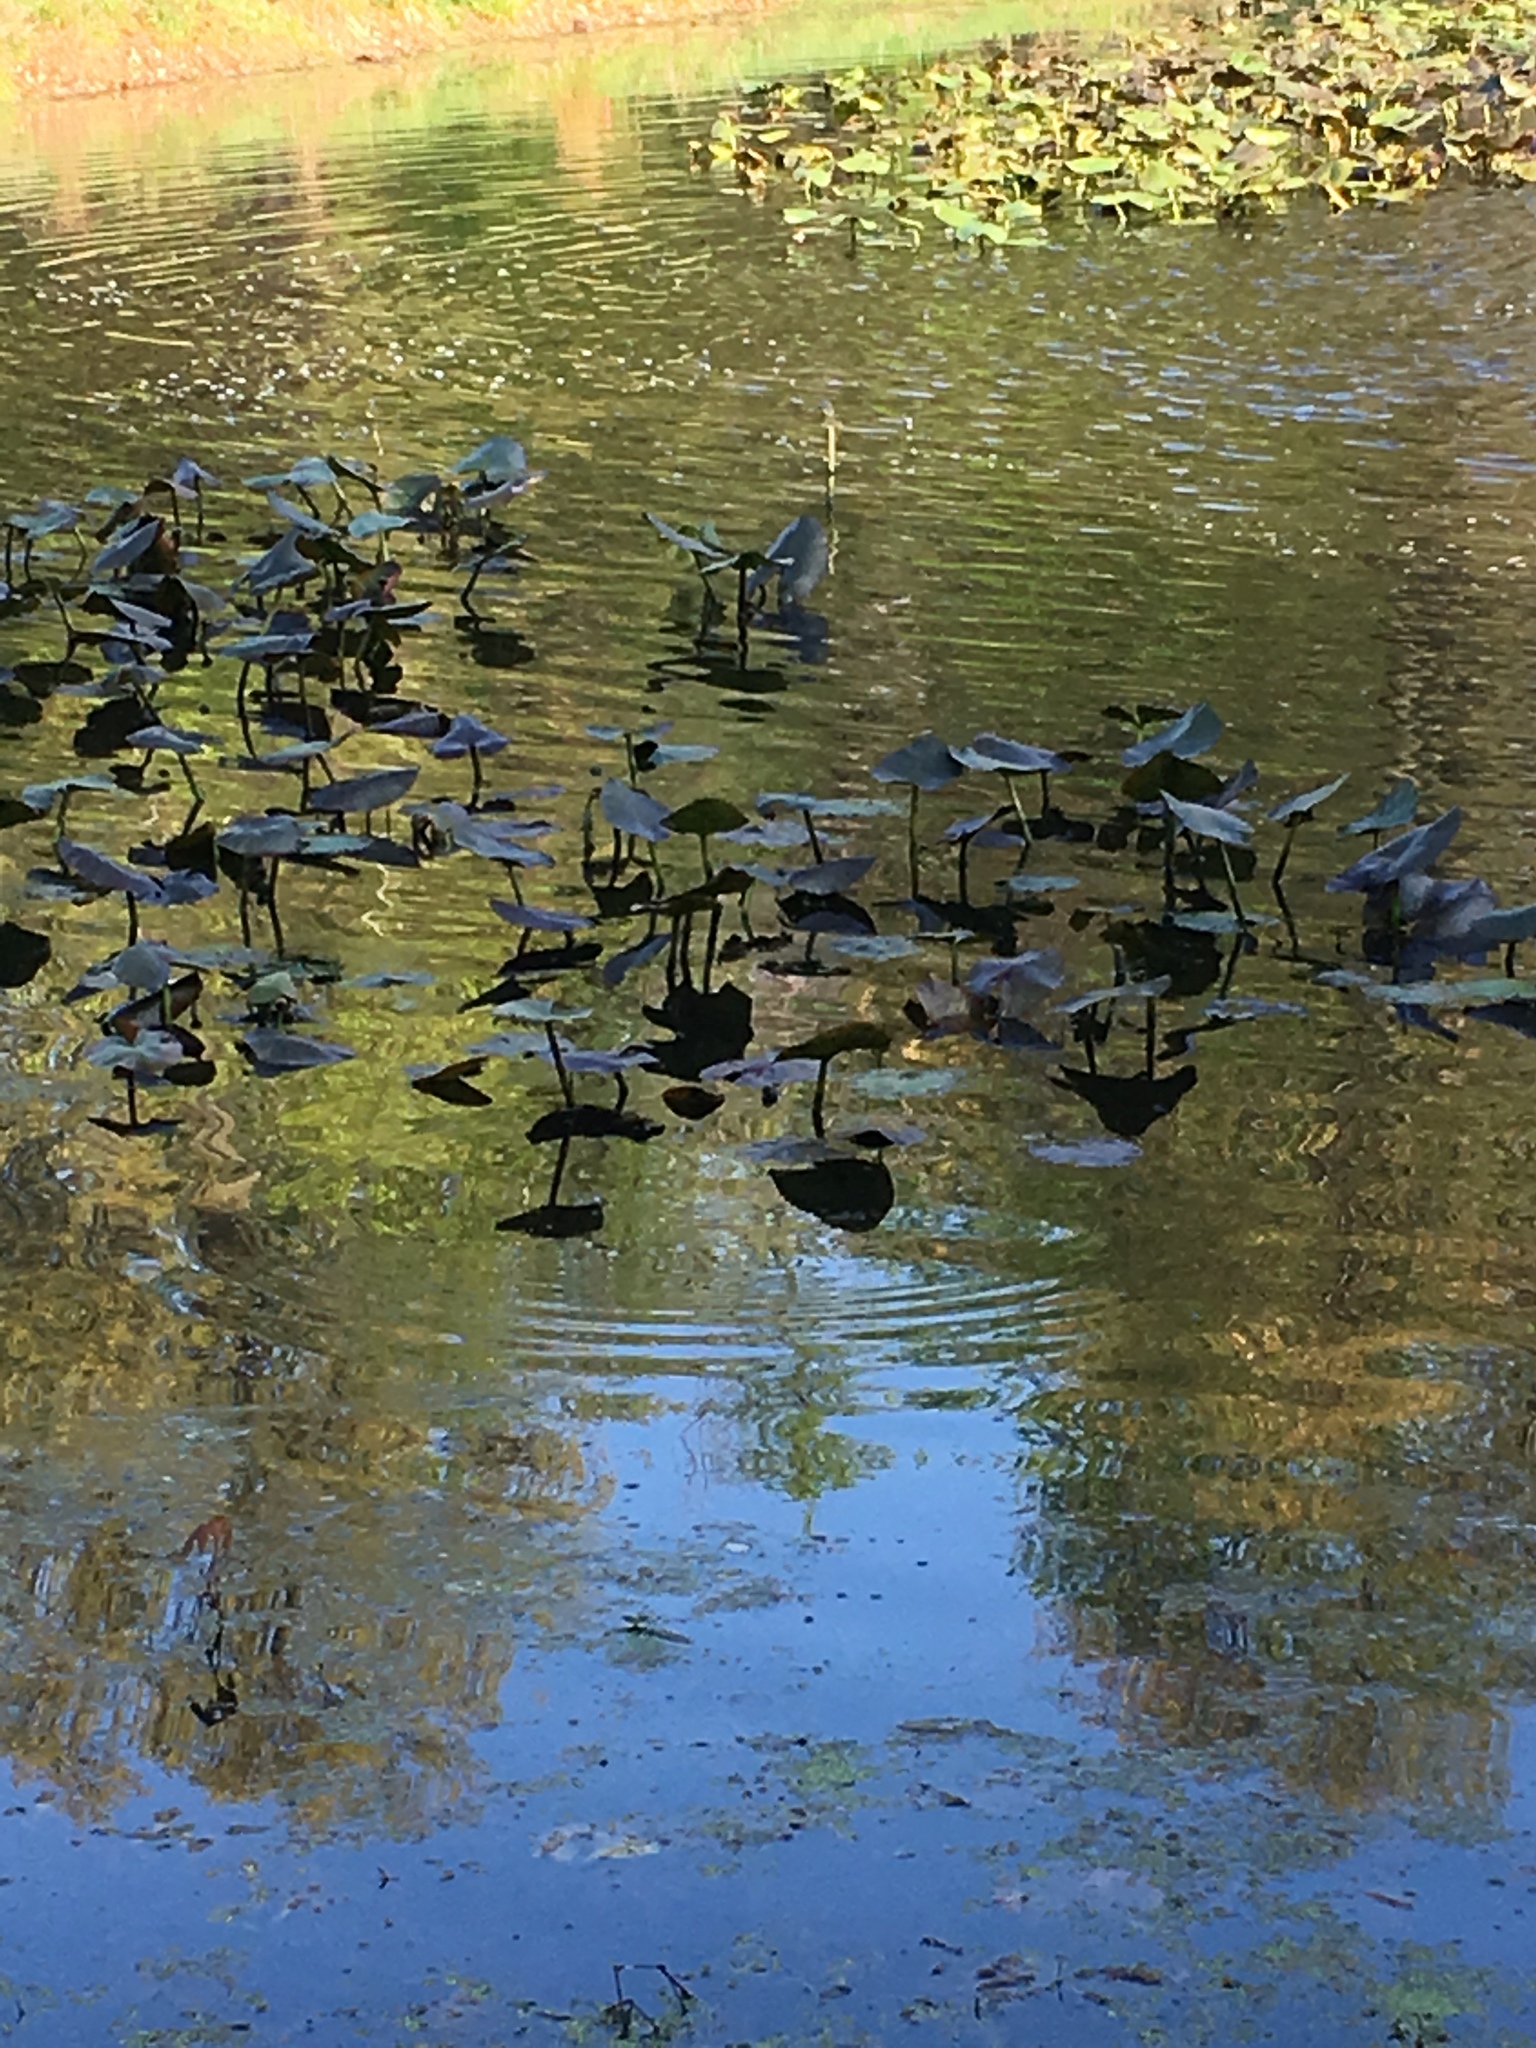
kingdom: Plantae
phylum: Tracheophyta
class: Magnoliopsida
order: Nymphaeales
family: Nymphaeaceae
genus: Nuphar
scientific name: Nuphar advena
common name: Spatter-dock
